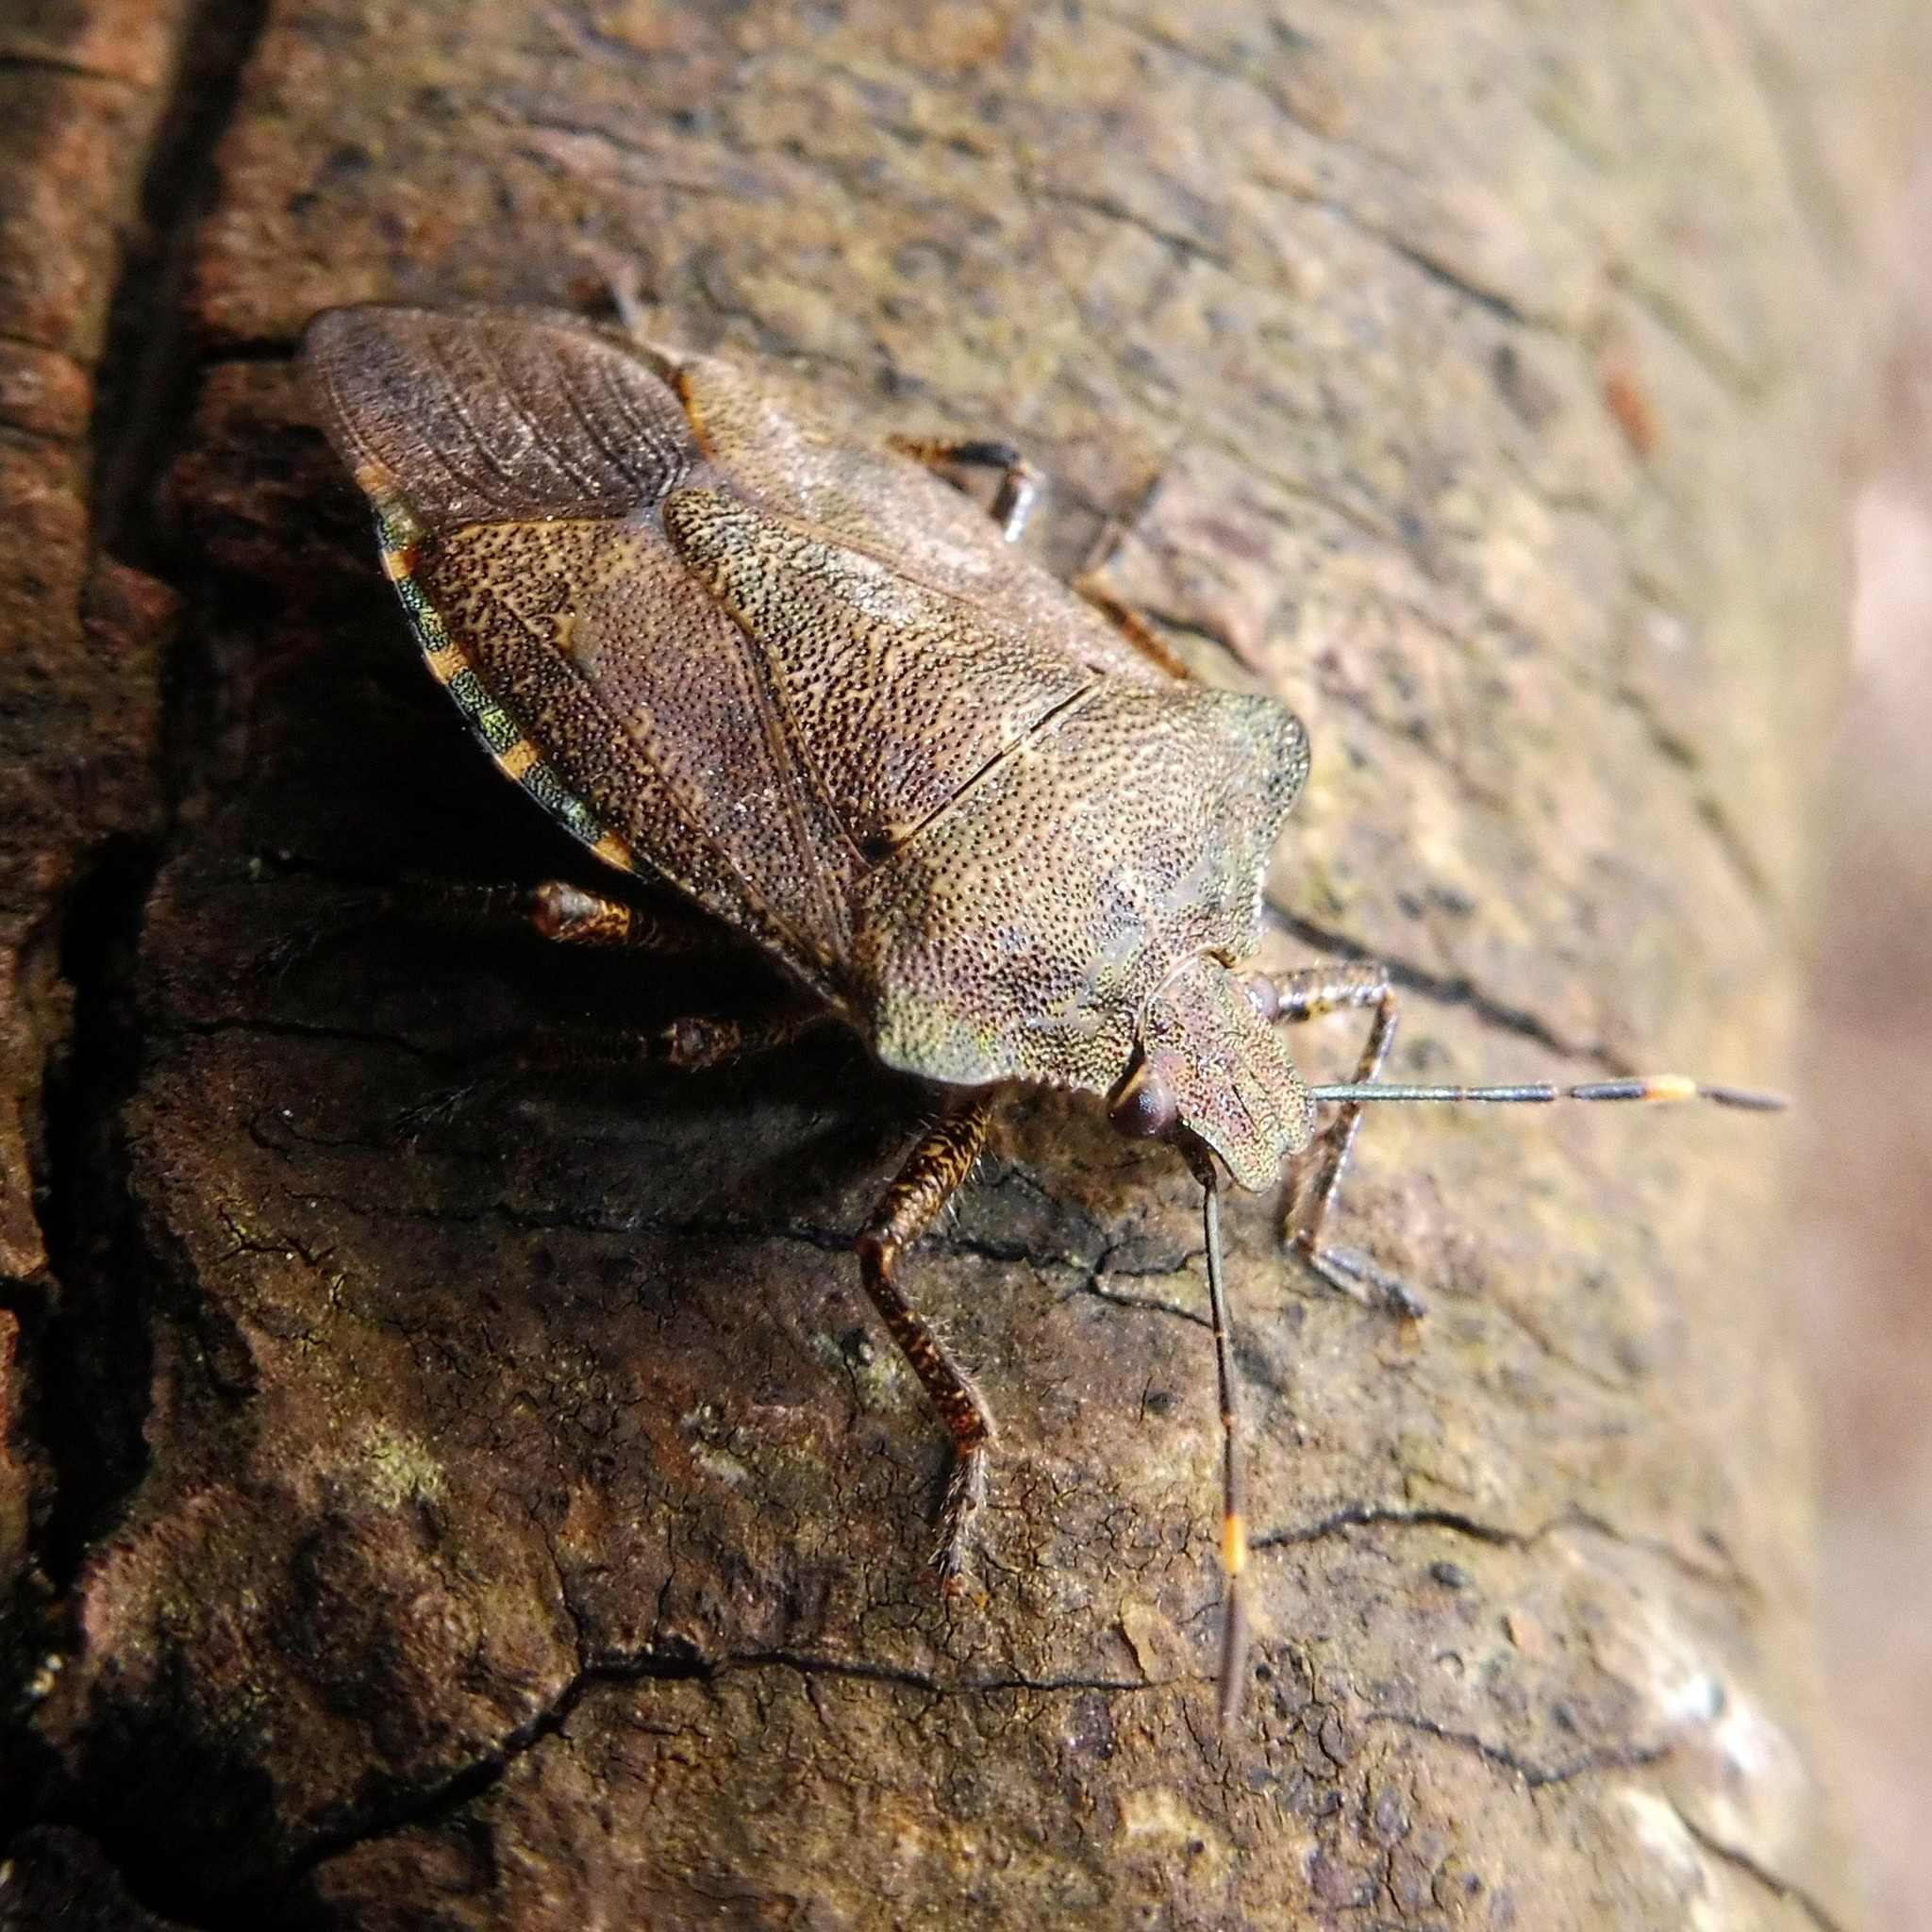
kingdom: Animalia
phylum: Arthropoda
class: Insecta
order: Hemiptera
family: Pentatomidae
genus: Troilus
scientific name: Troilus luridus
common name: Bronze shieldbug
